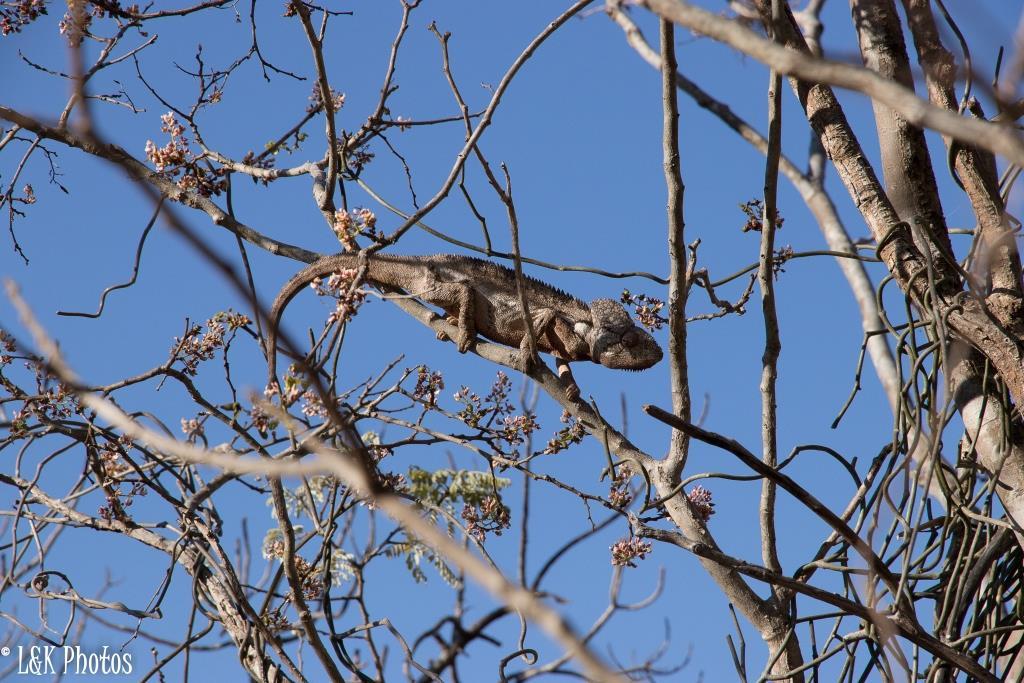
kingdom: Animalia
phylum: Chordata
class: Squamata
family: Chamaeleonidae
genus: Furcifer
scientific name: Furcifer oustaleti
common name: Oustalet's chameleon
